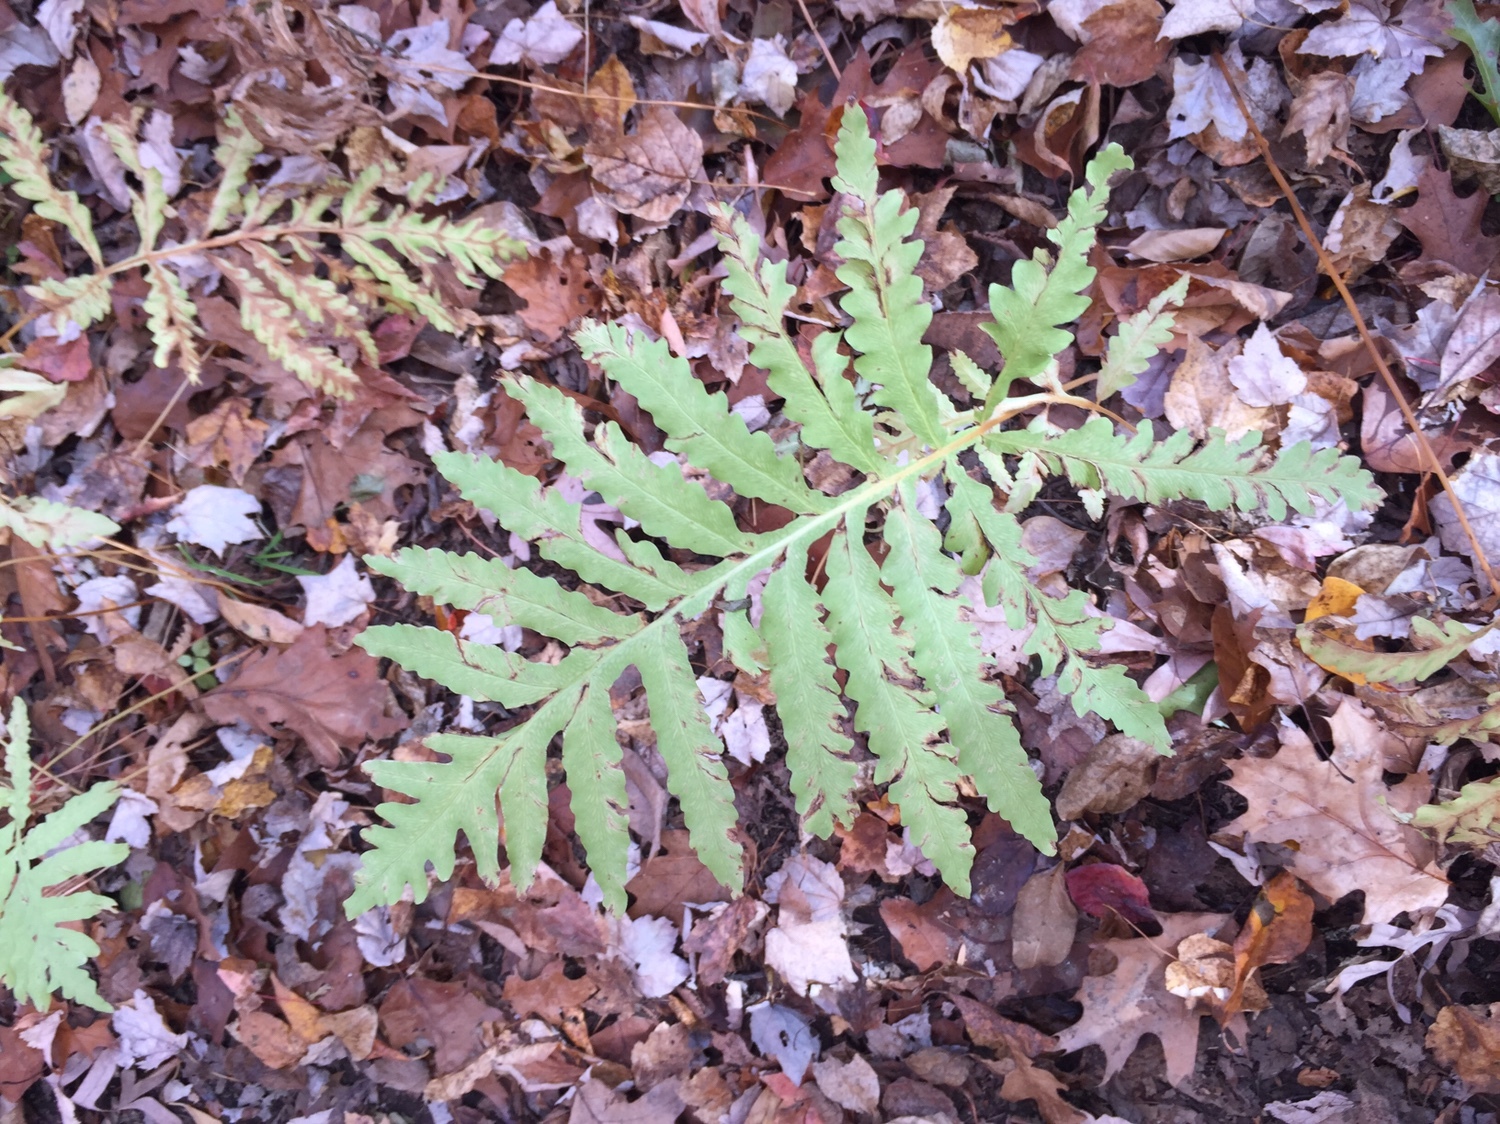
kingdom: Plantae
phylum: Tracheophyta
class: Polypodiopsida
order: Polypodiales
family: Onocleaceae
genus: Onoclea
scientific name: Onoclea sensibilis
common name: Sensitive fern
